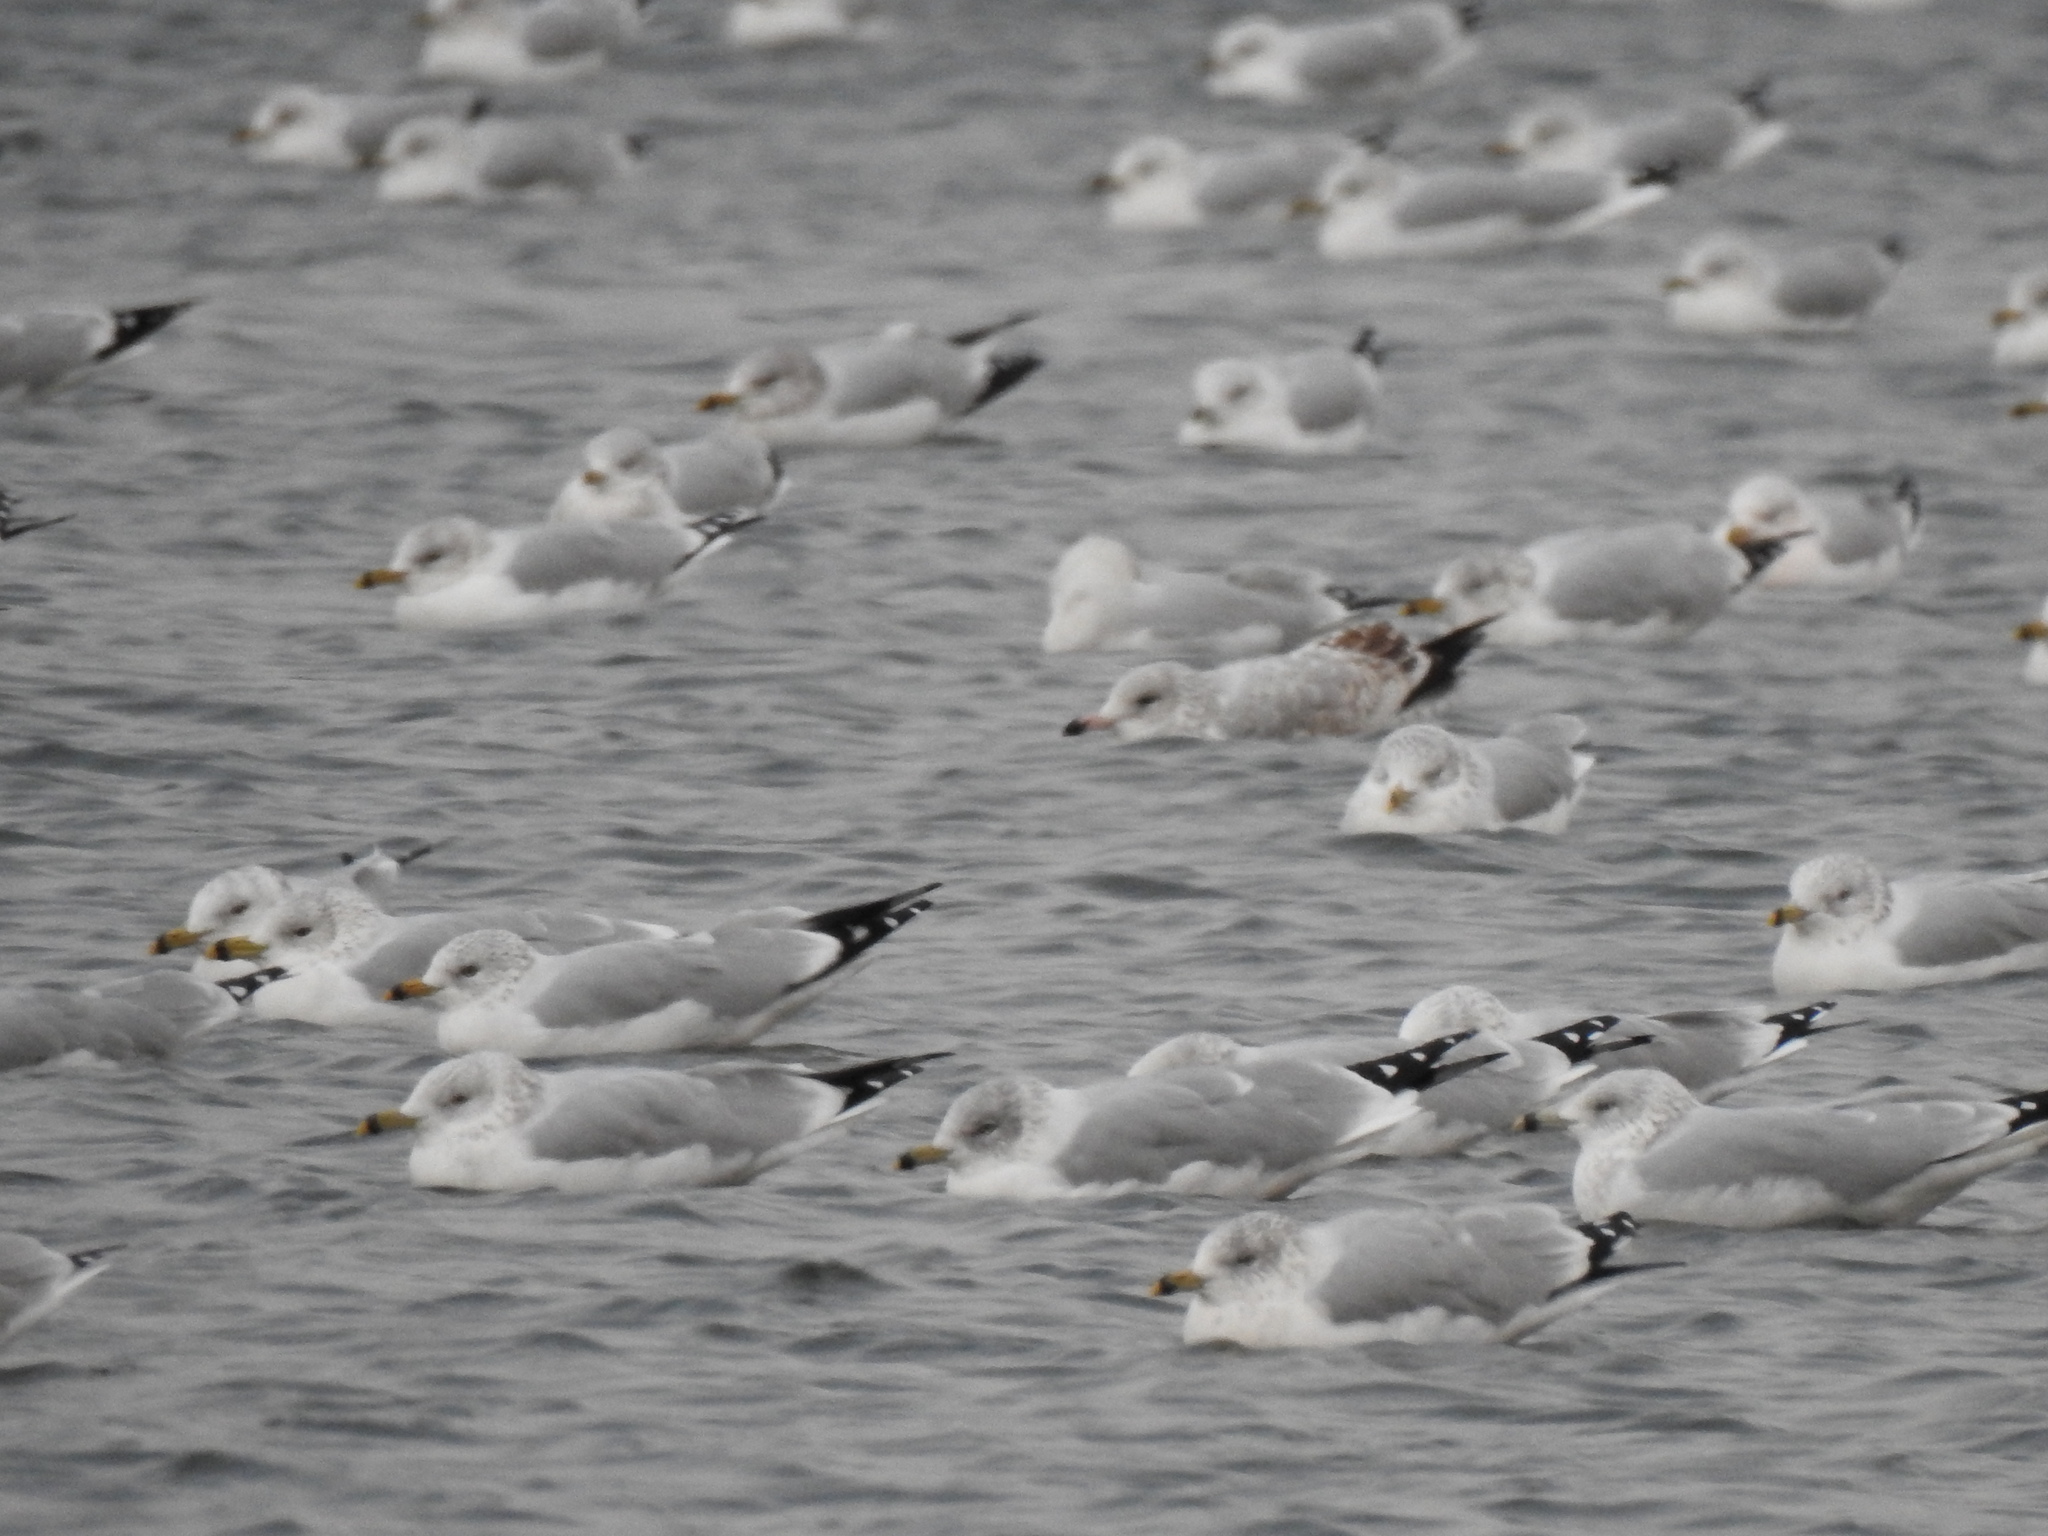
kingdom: Animalia
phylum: Chordata
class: Aves
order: Charadriiformes
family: Laridae
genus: Larus
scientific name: Larus delawarensis
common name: Ring-billed gull
